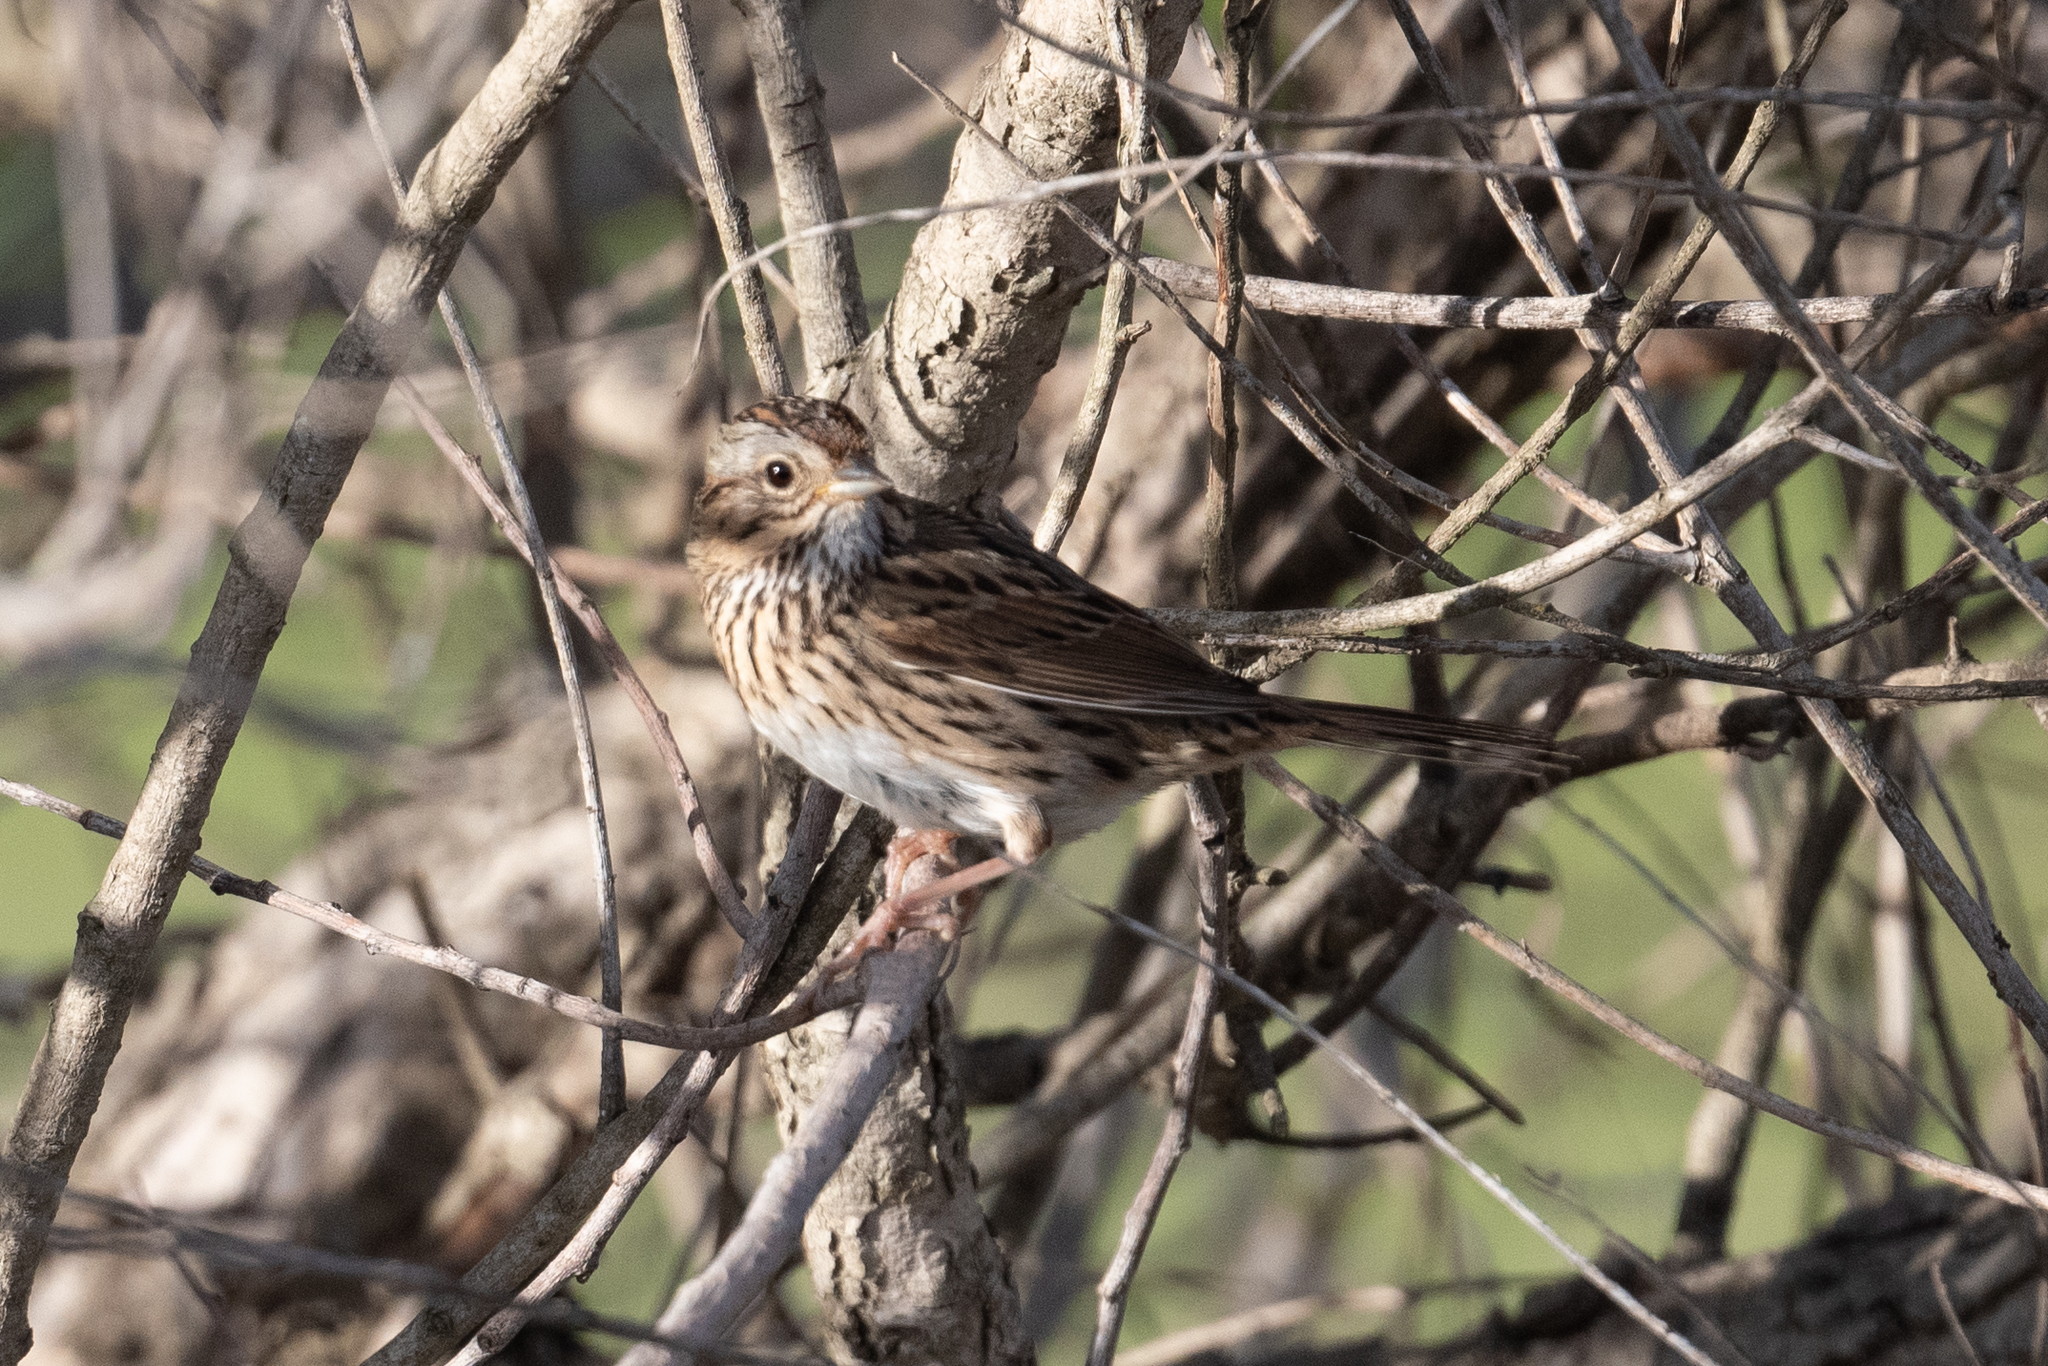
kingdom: Animalia
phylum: Chordata
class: Aves
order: Passeriformes
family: Passerellidae
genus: Melospiza
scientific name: Melospiza lincolnii
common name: Lincoln's sparrow
